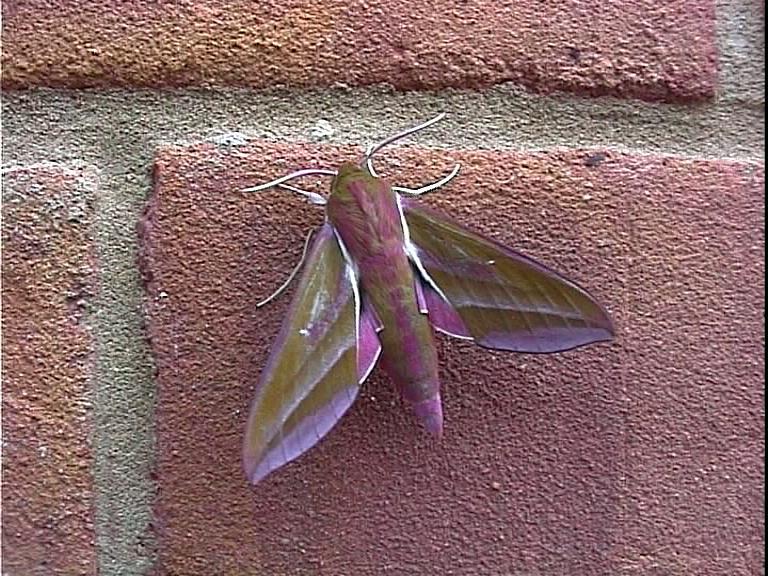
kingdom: Animalia
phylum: Arthropoda
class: Insecta
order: Lepidoptera
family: Sphingidae
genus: Deilephila
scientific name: Deilephila elpenor
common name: Elephant hawk-moth
